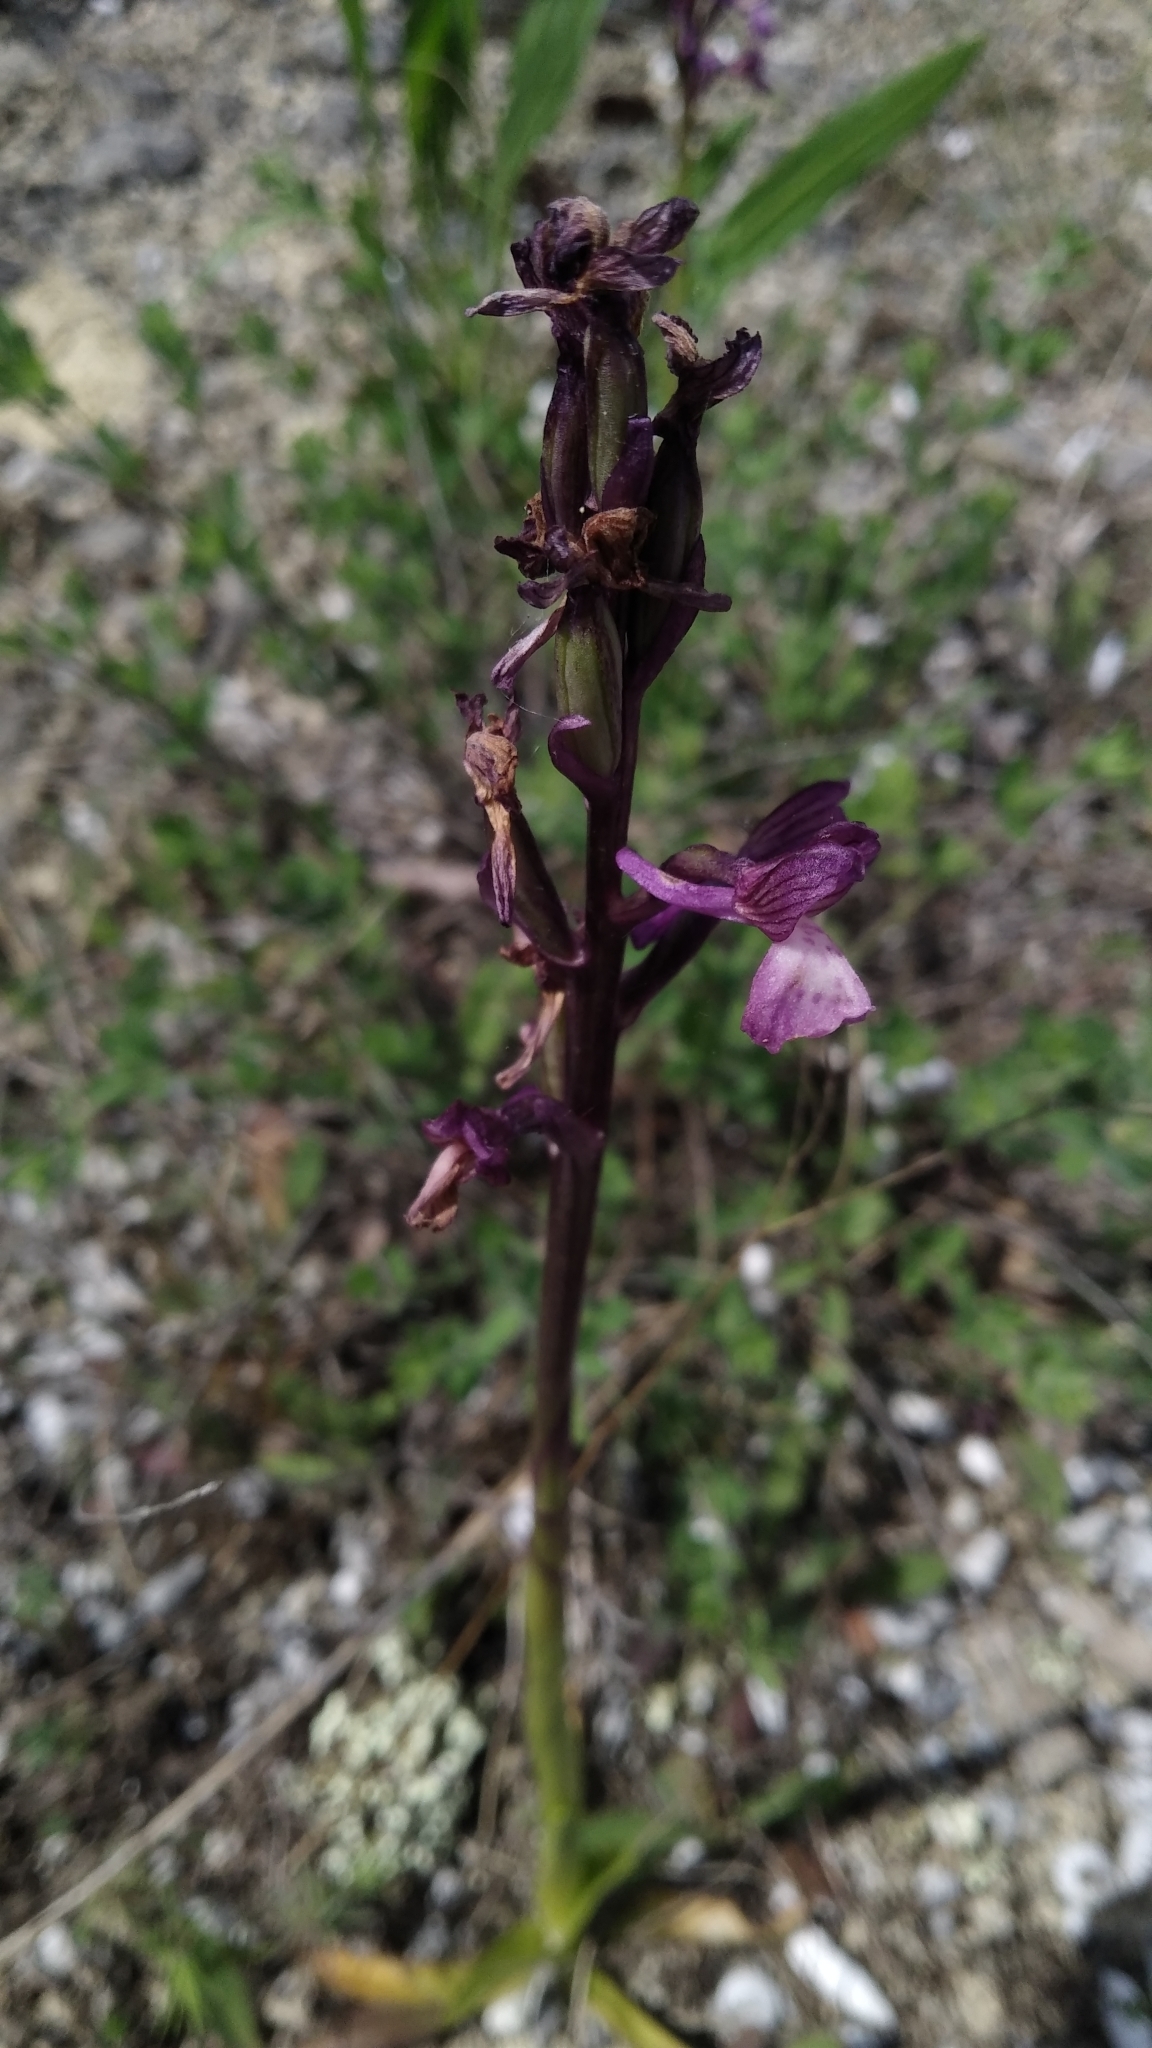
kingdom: Plantae
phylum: Tracheophyta
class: Liliopsida
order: Asparagales
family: Orchidaceae
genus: Anacamptis
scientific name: Anacamptis morio
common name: Green-winged orchid
